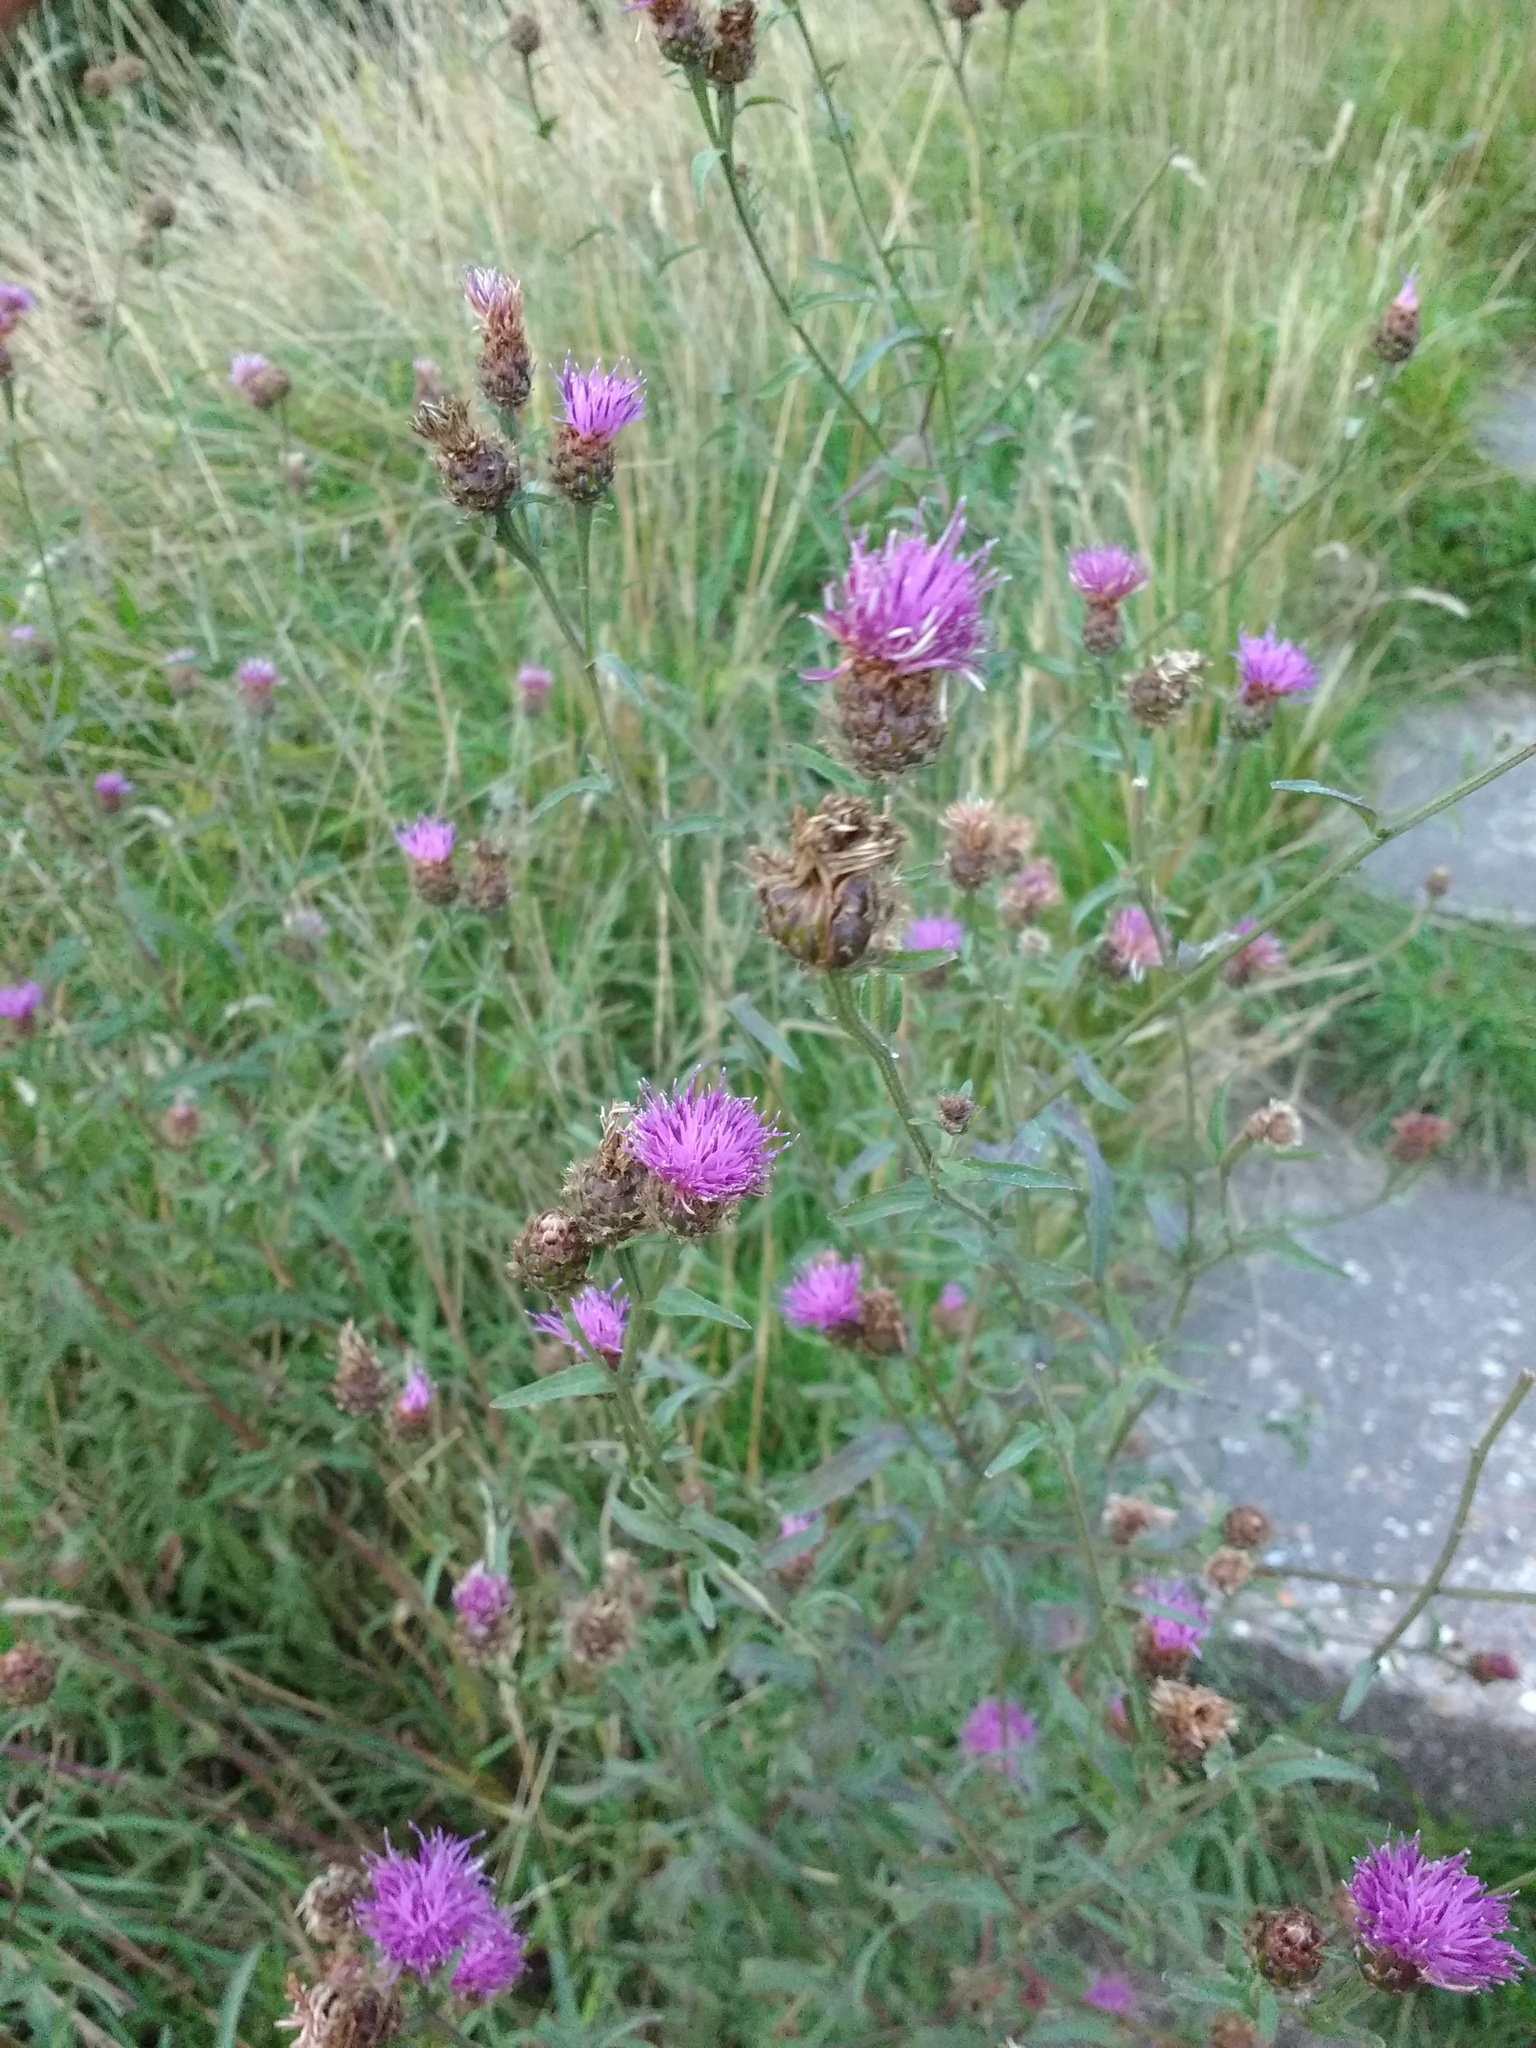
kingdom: Plantae
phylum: Tracheophyta
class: Magnoliopsida
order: Asterales
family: Asteraceae
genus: Centaurea
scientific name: Centaurea nigra
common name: Lesser knapweed
